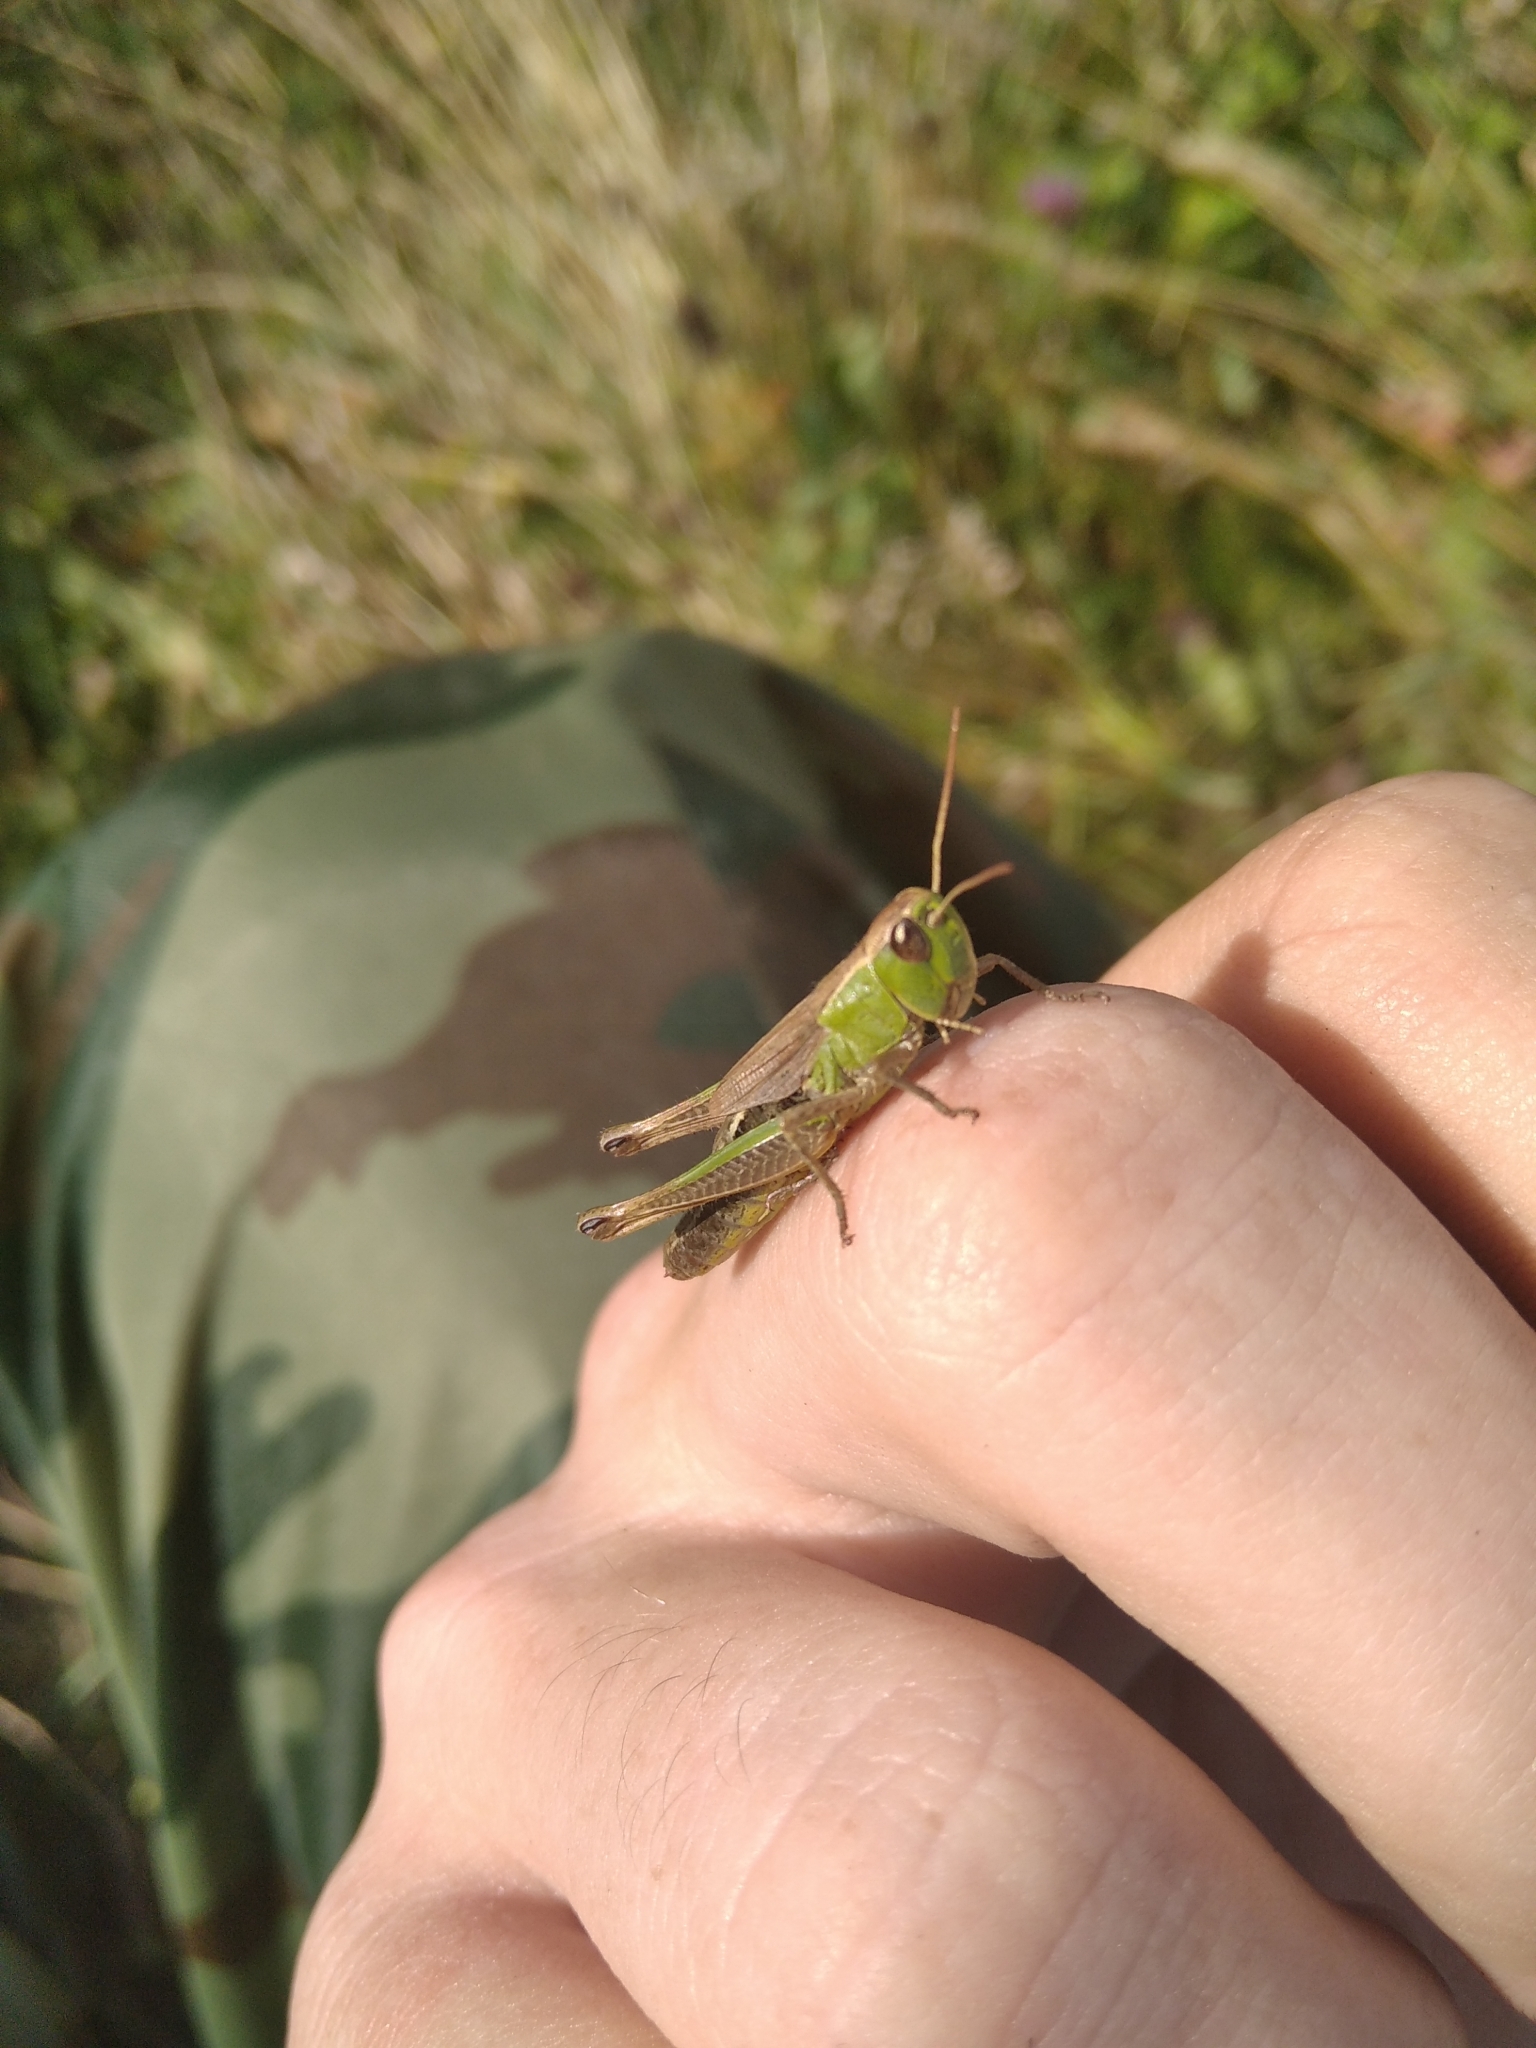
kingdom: Animalia
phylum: Arthropoda
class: Insecta
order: Orthoptera
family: Acrididae
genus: Pseudochorthippus
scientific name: Pseudochorthippus parallelus
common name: Meadow grasshopper
